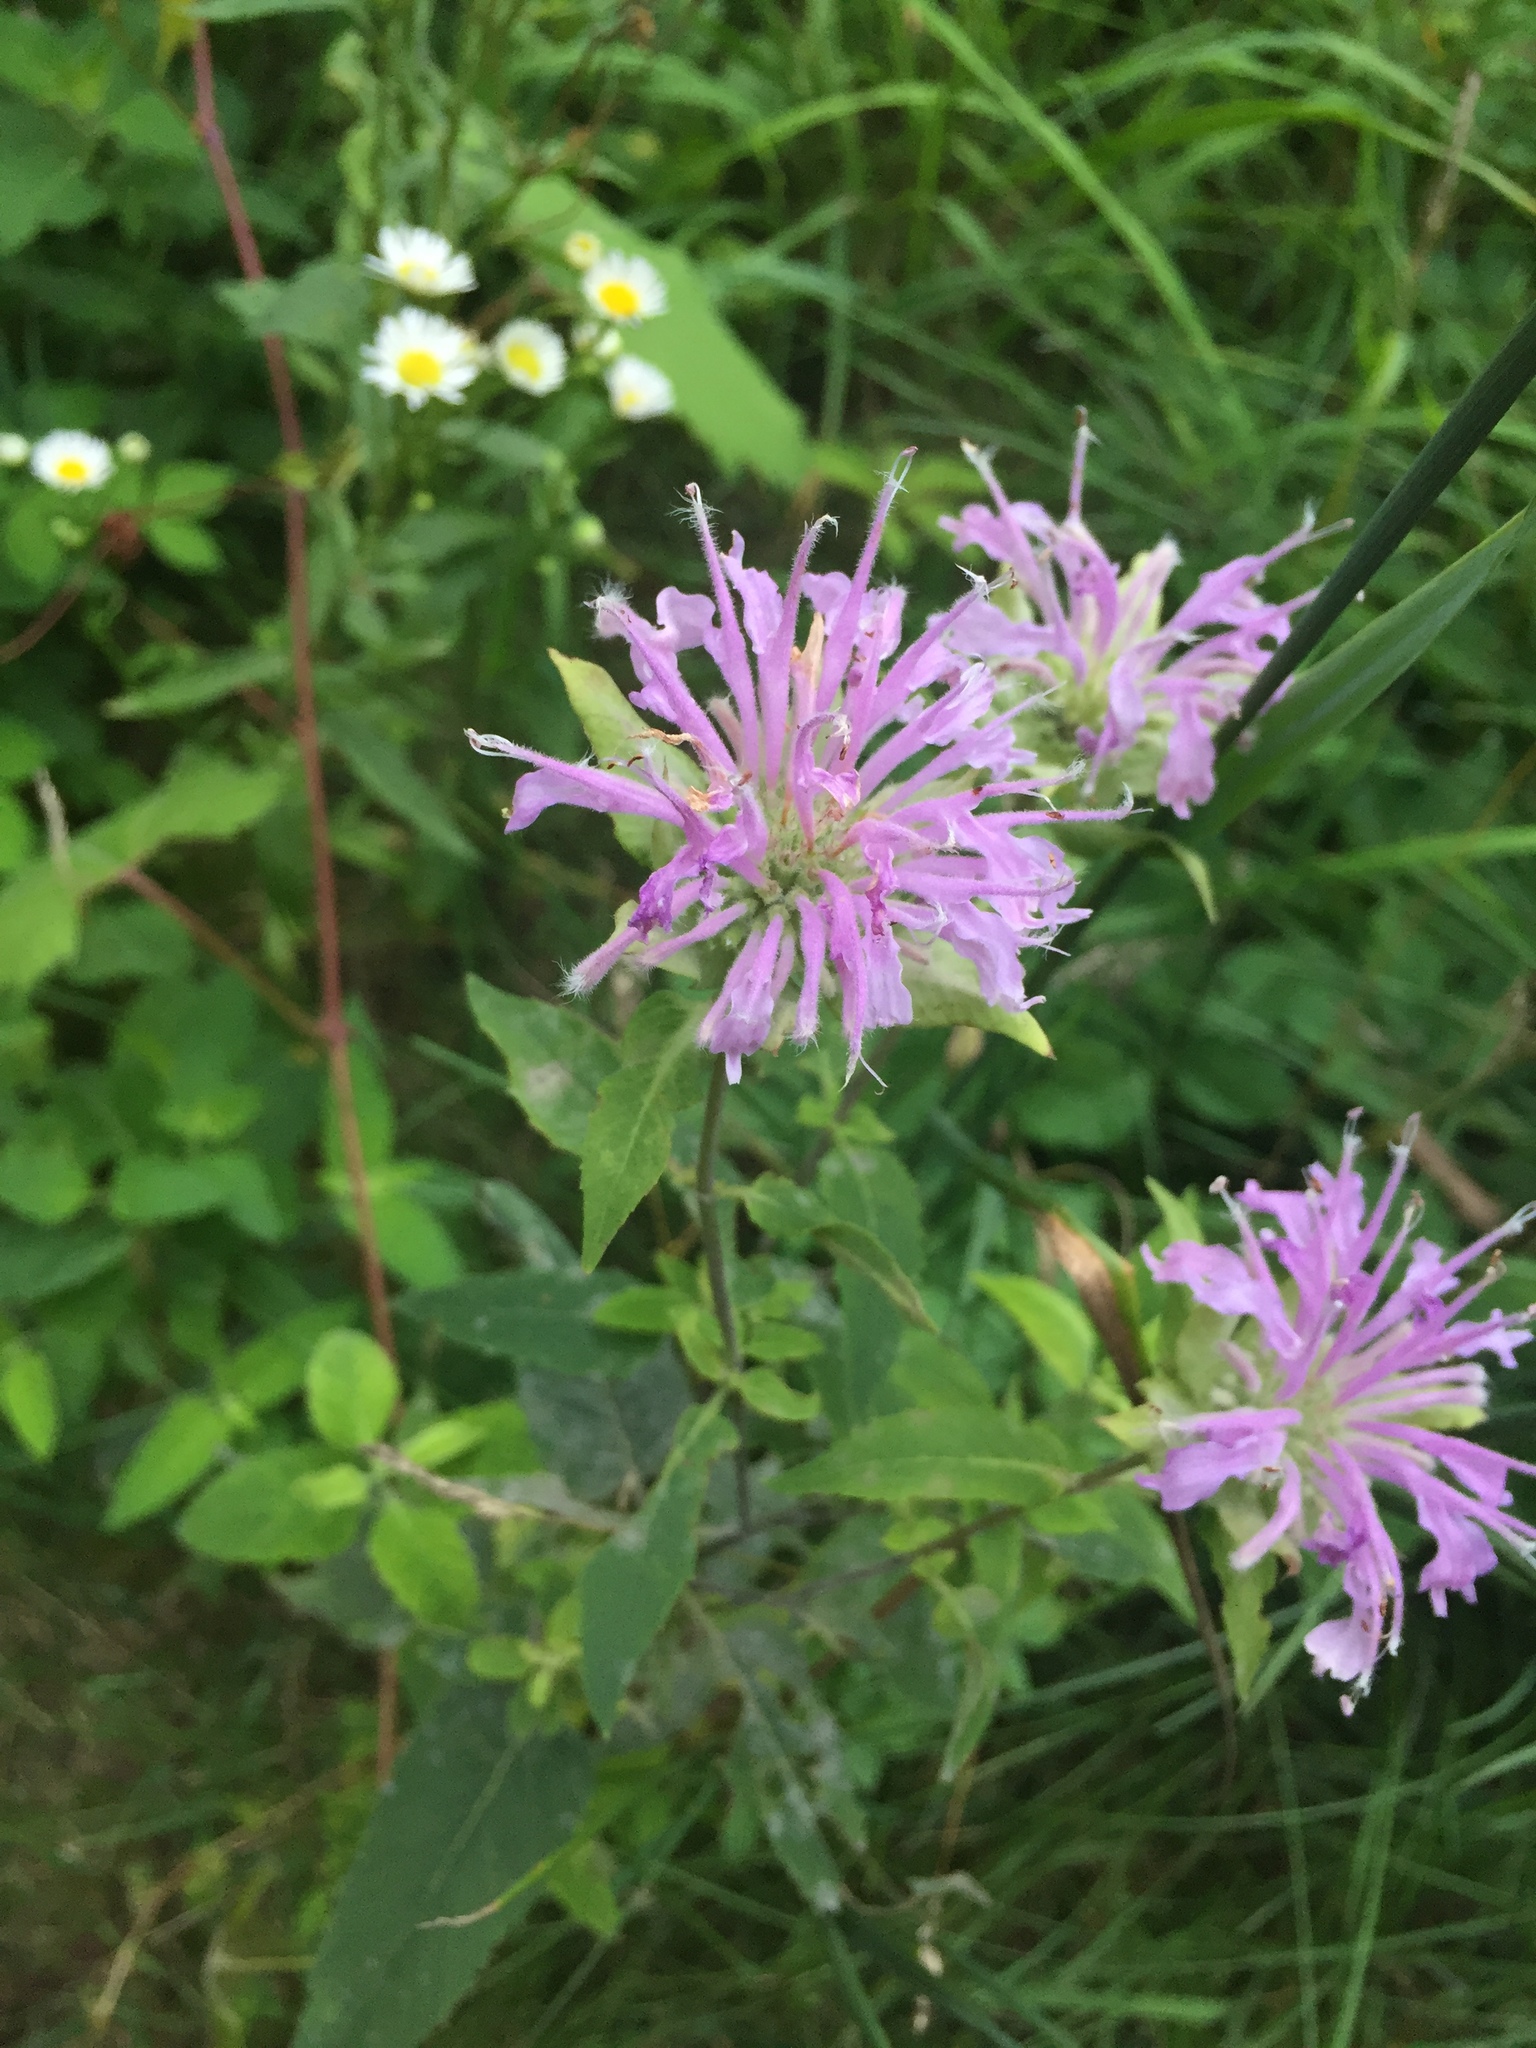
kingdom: Plantae
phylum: Tracheophyta
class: Magnoliopsida
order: Lamiales
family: Lamiaceae
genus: Monarda
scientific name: Monarda fistulosa
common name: Purple beebalm
